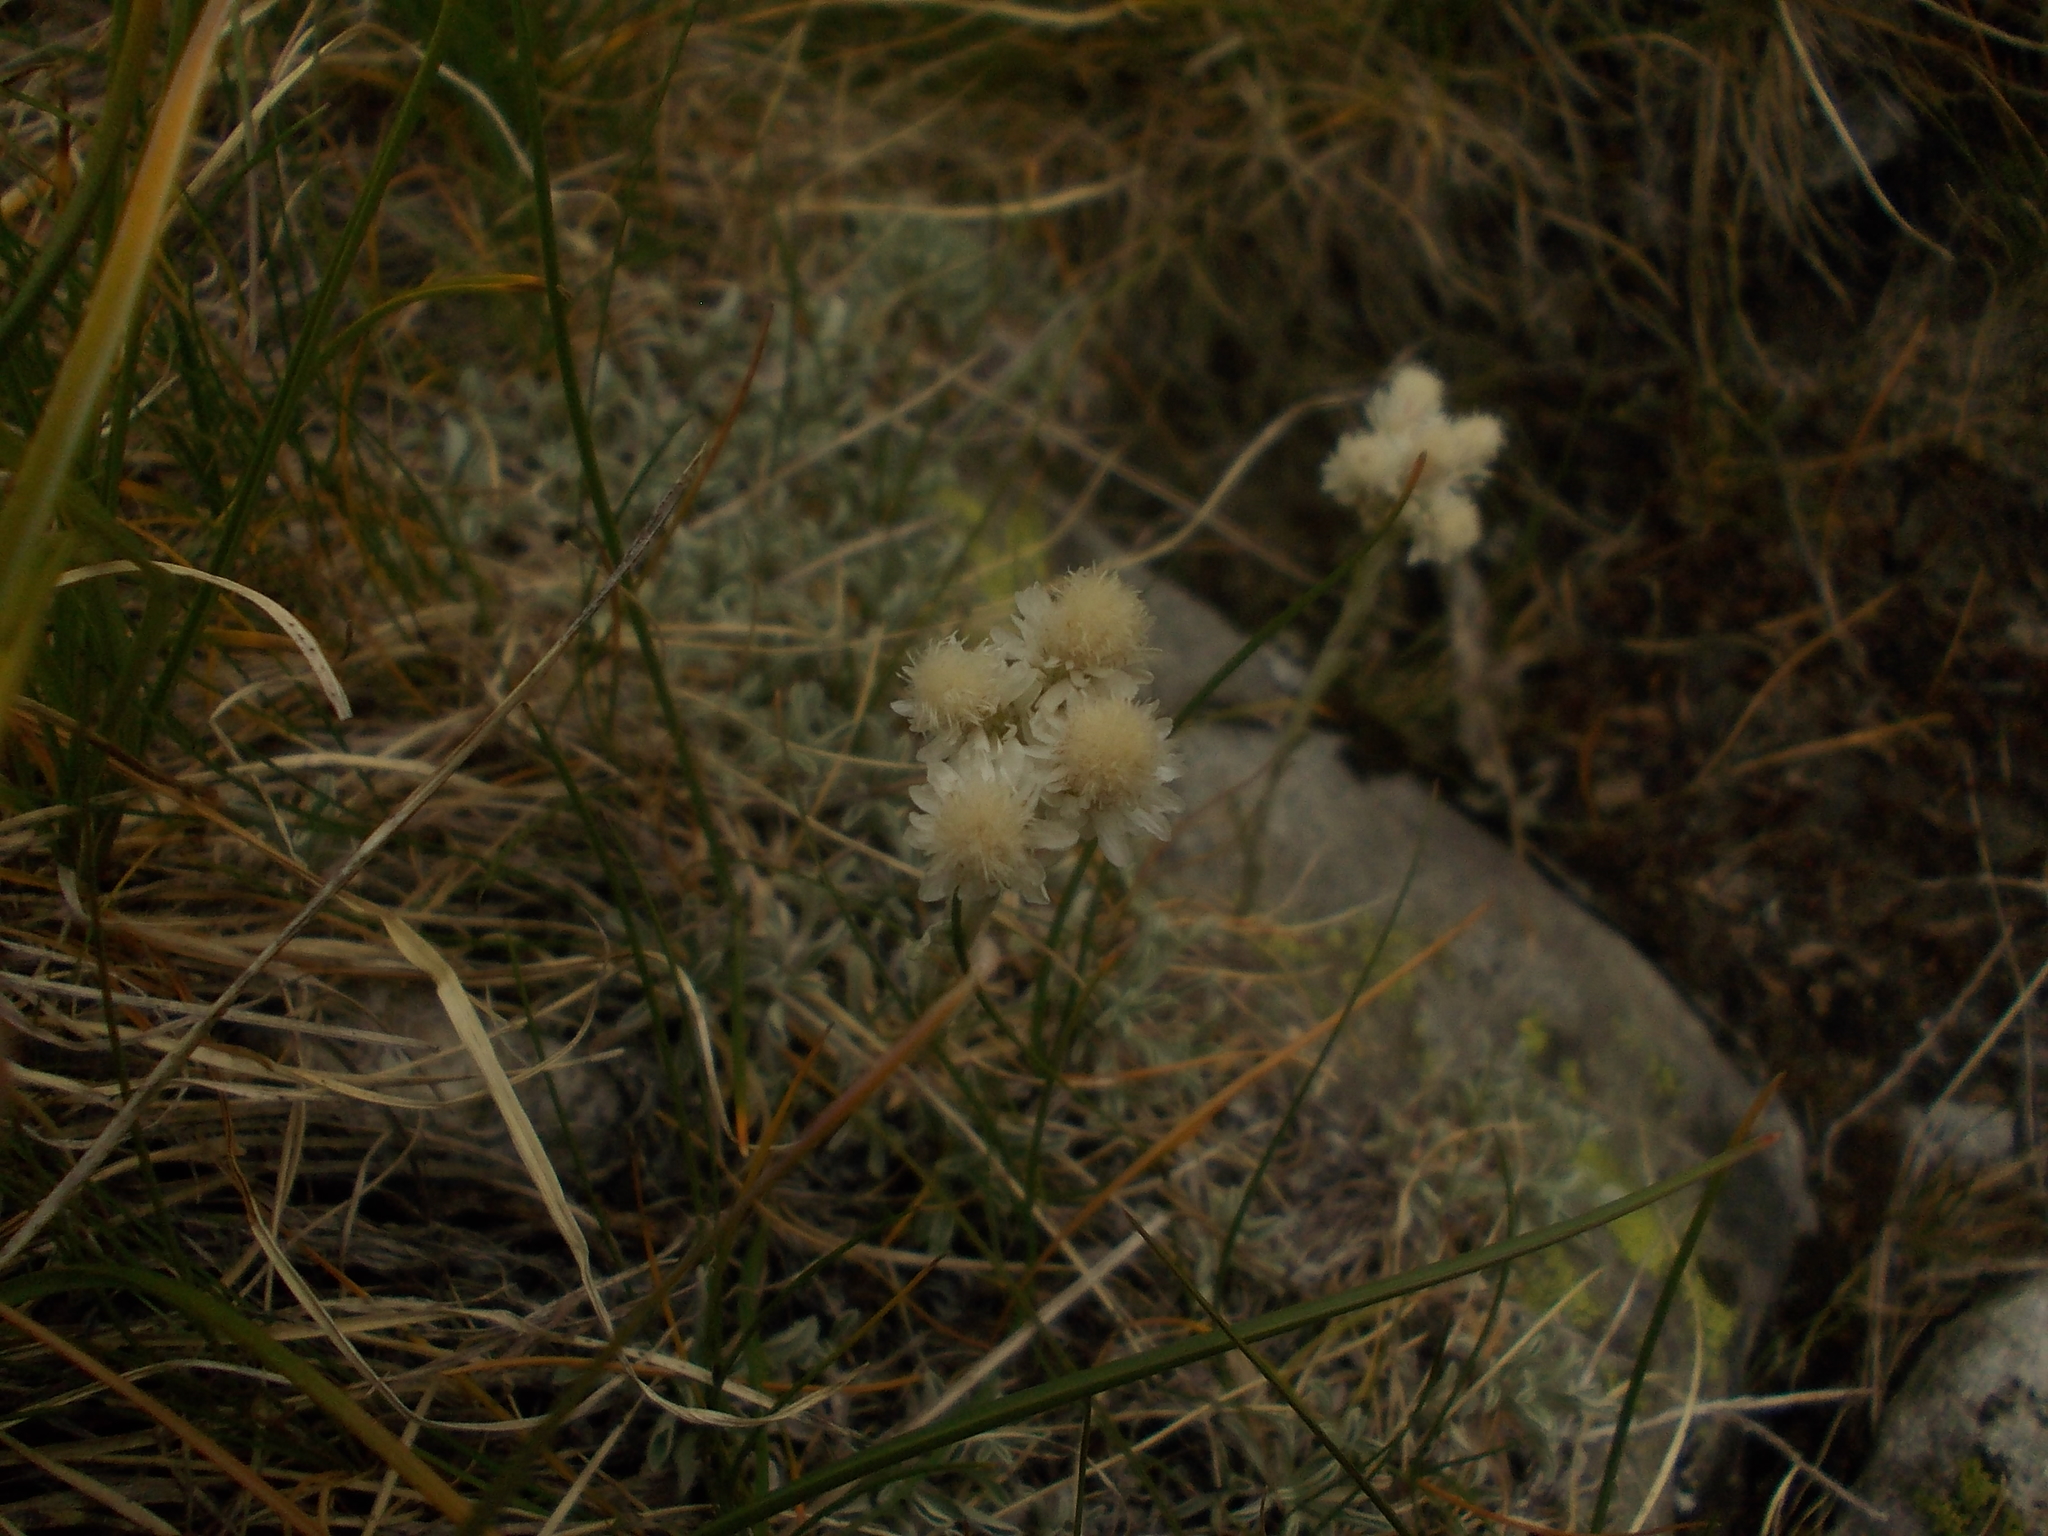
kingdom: Plantae
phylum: Tracheophyta
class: Magnoliopsida
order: Asterales
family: Asteraceae
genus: Antennaria
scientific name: Antennaria dioica
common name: Mountain everlasting
